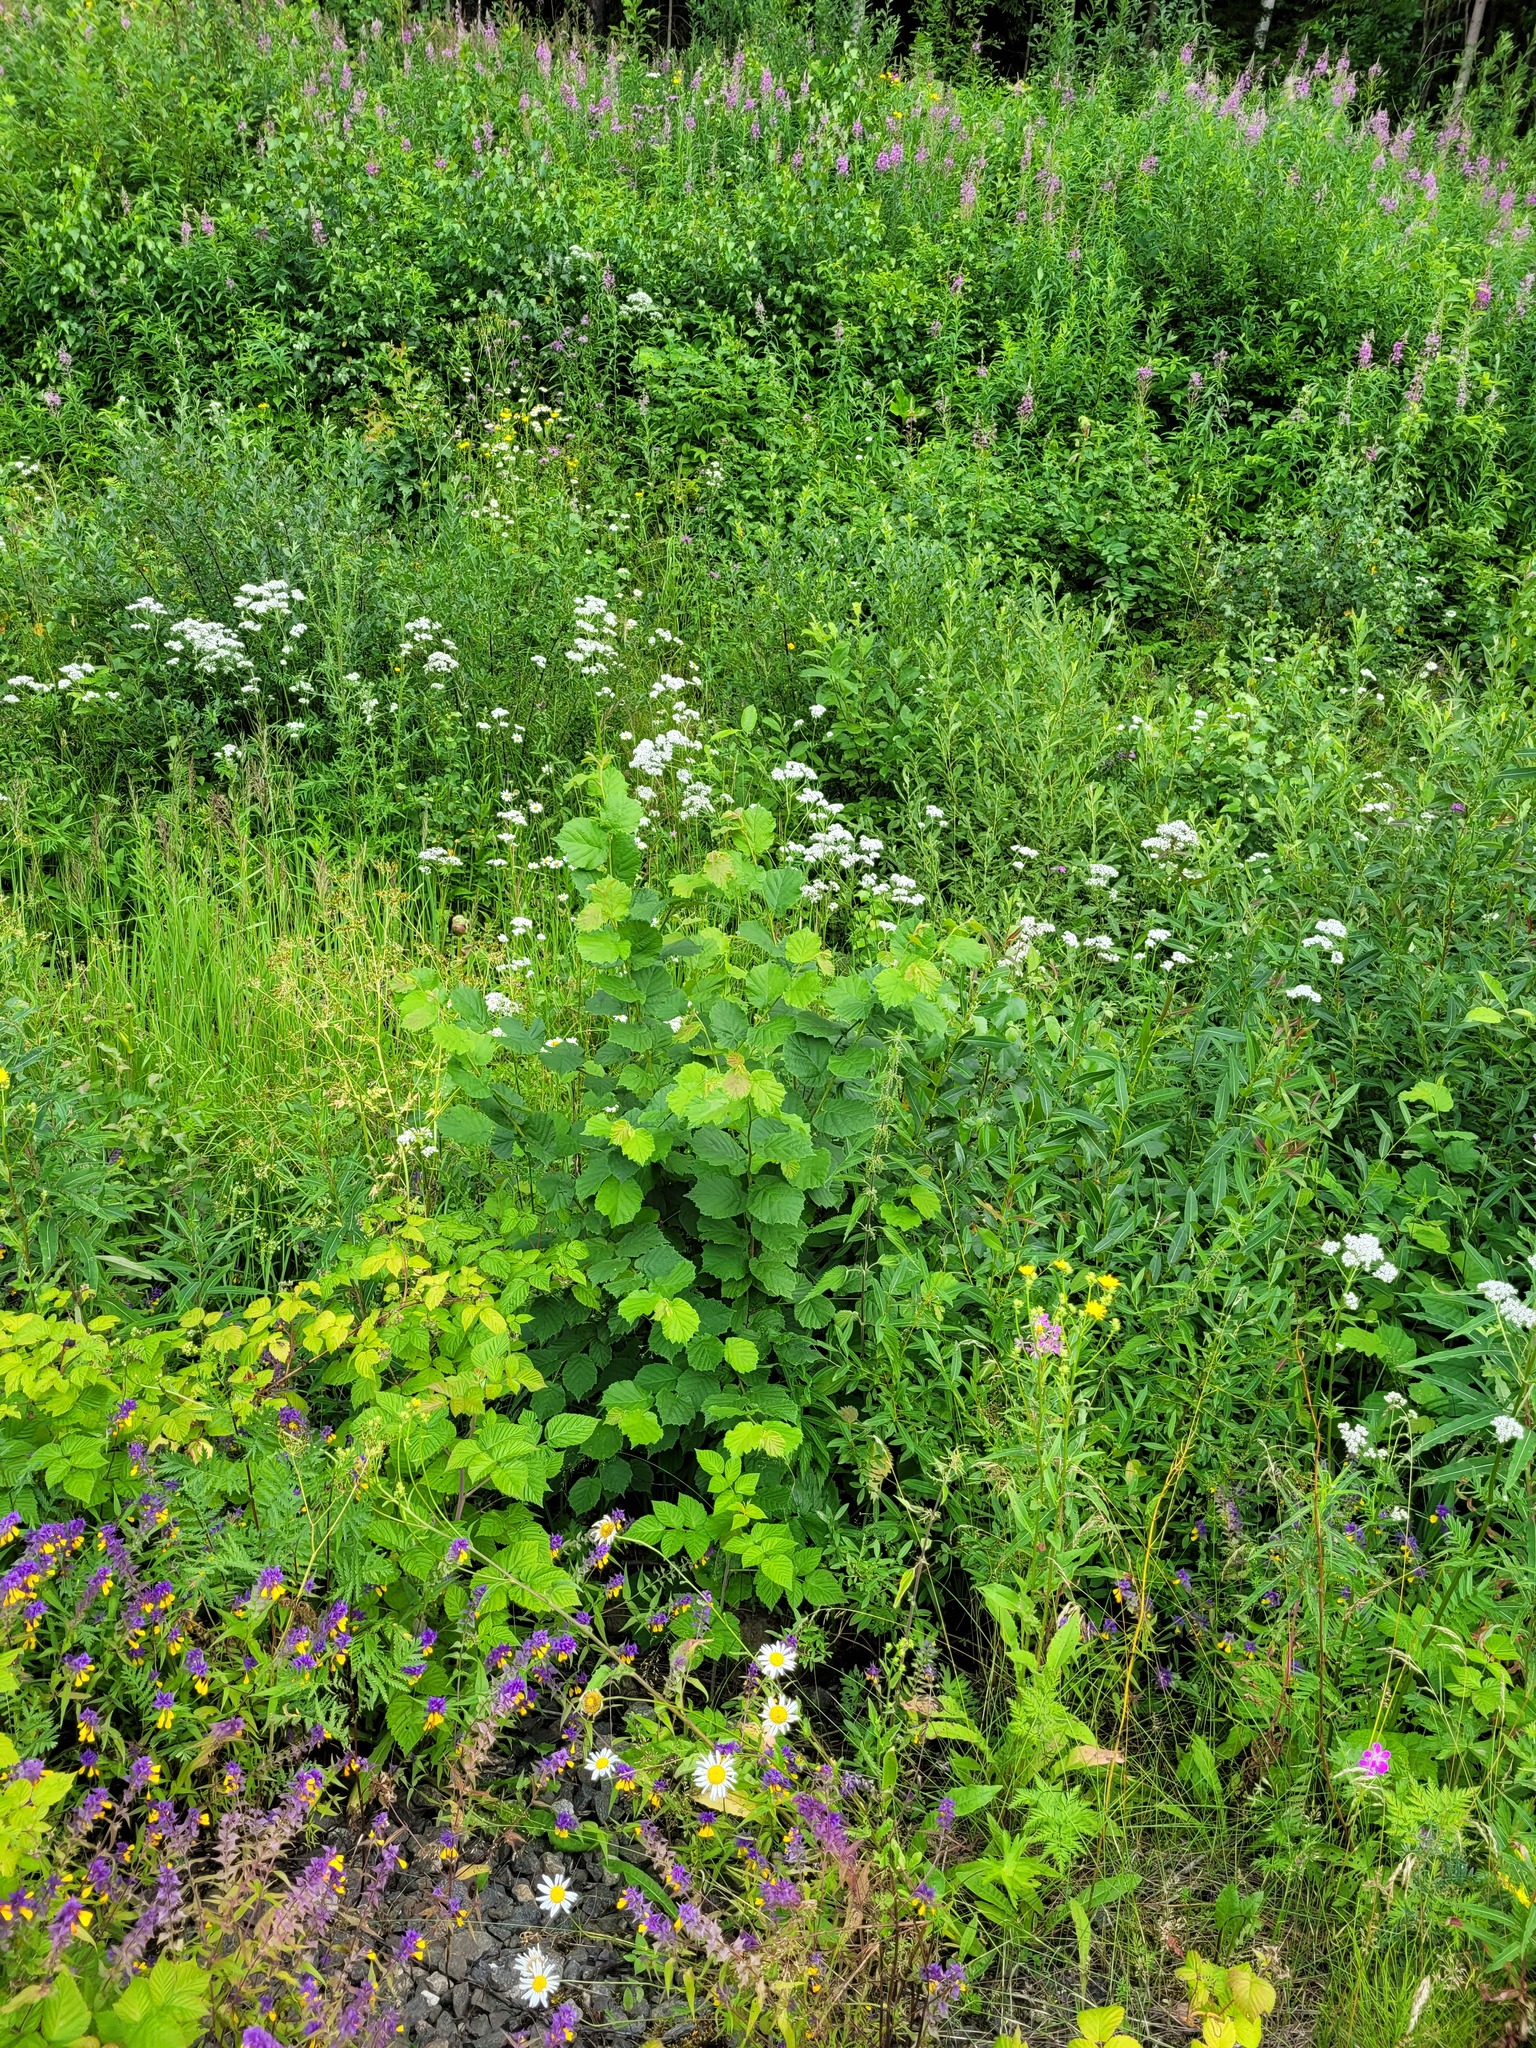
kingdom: Plantae
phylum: Tracheophyta
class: Magnoliopsida
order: Fagales
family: Betulaceae
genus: Corylus
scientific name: Corylus avellana
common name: European hazel
